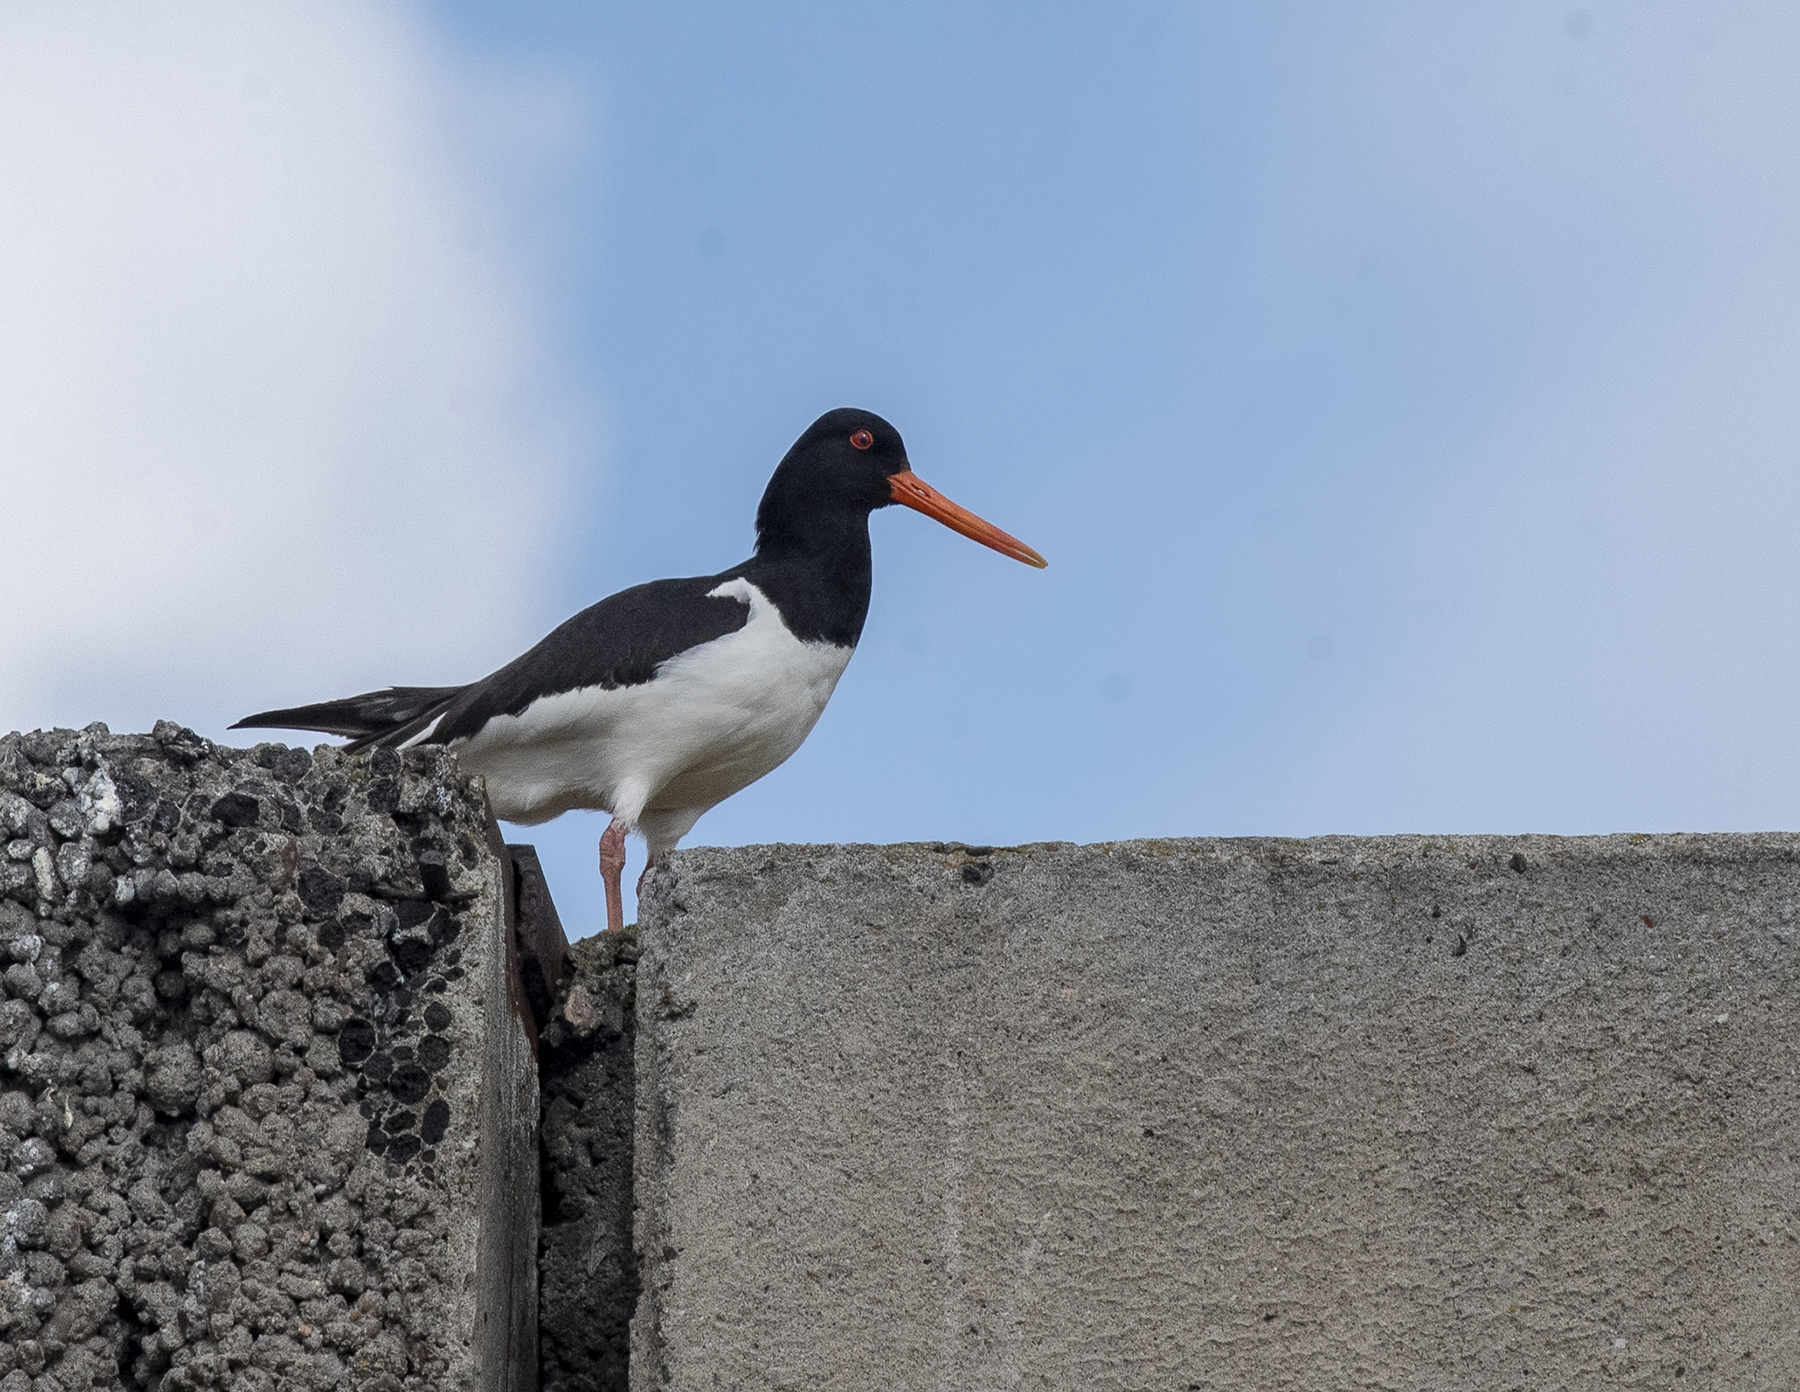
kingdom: Animalia
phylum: Chordata
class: Aves
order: Charadriiformes
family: Haematopodidae
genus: Haematopus
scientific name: Haematopus ostralegus
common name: Eurasian oystercatcher
